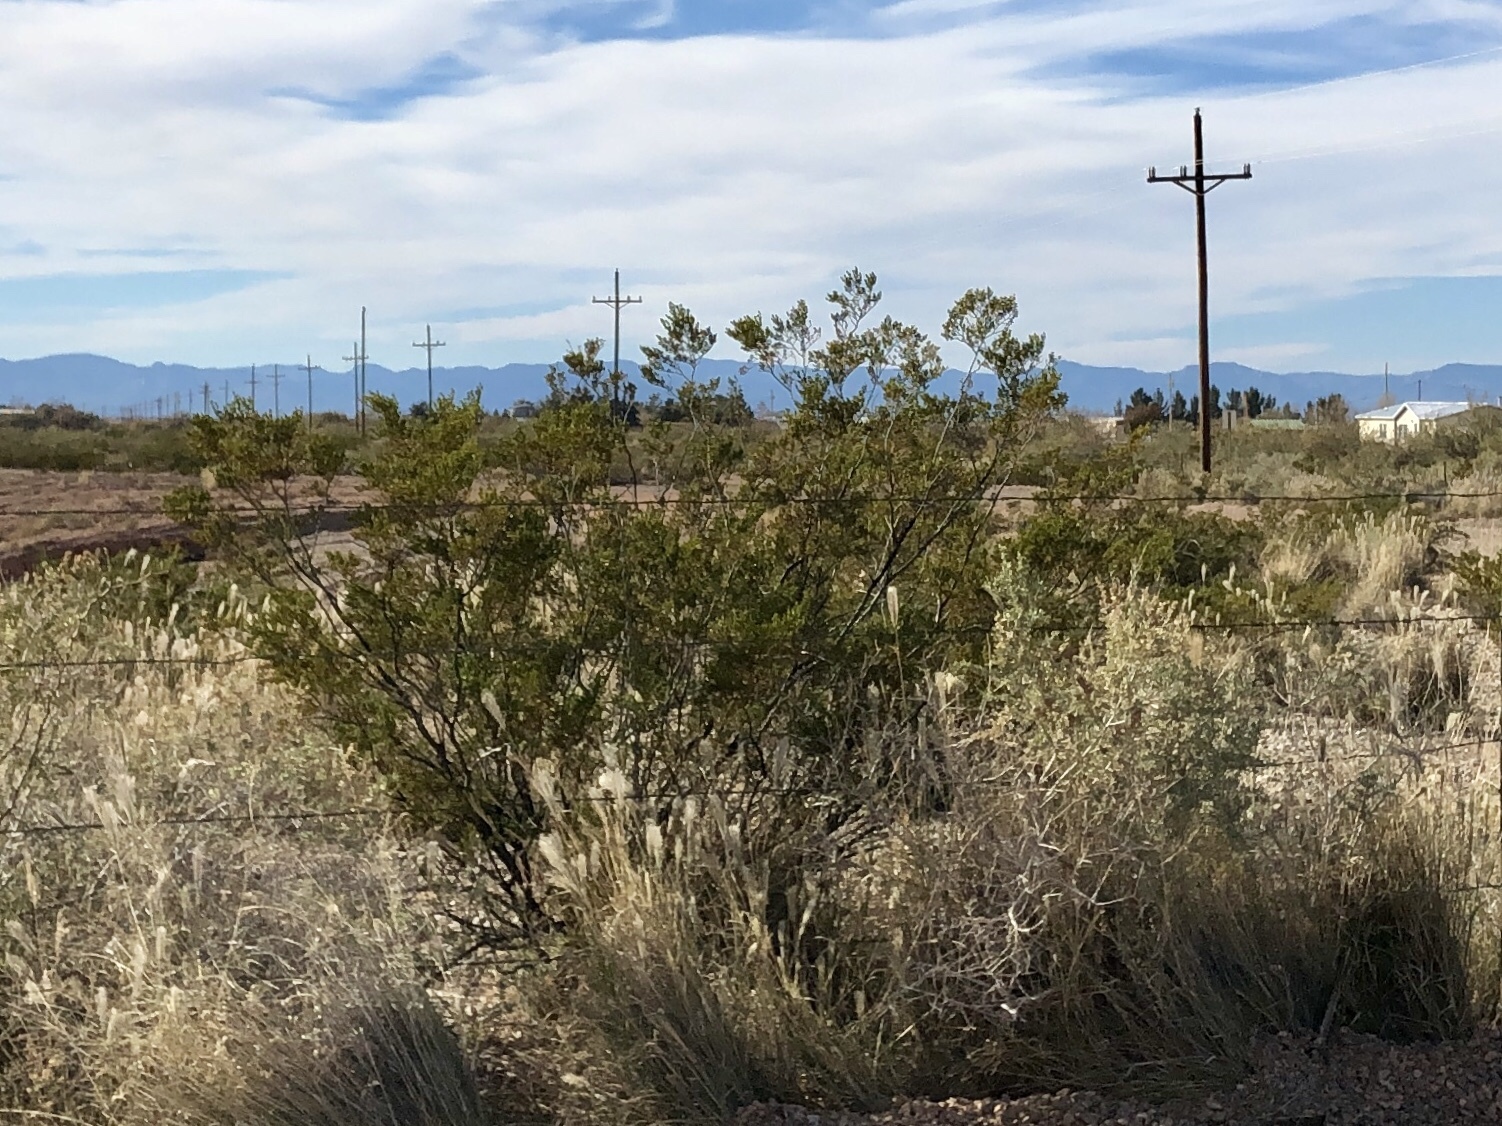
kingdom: Plantae
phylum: Tracheophyta
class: Magnoliopsida
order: Zygophyllales
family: Zygophyllaceae
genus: Larrea
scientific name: Larrea tridentata
